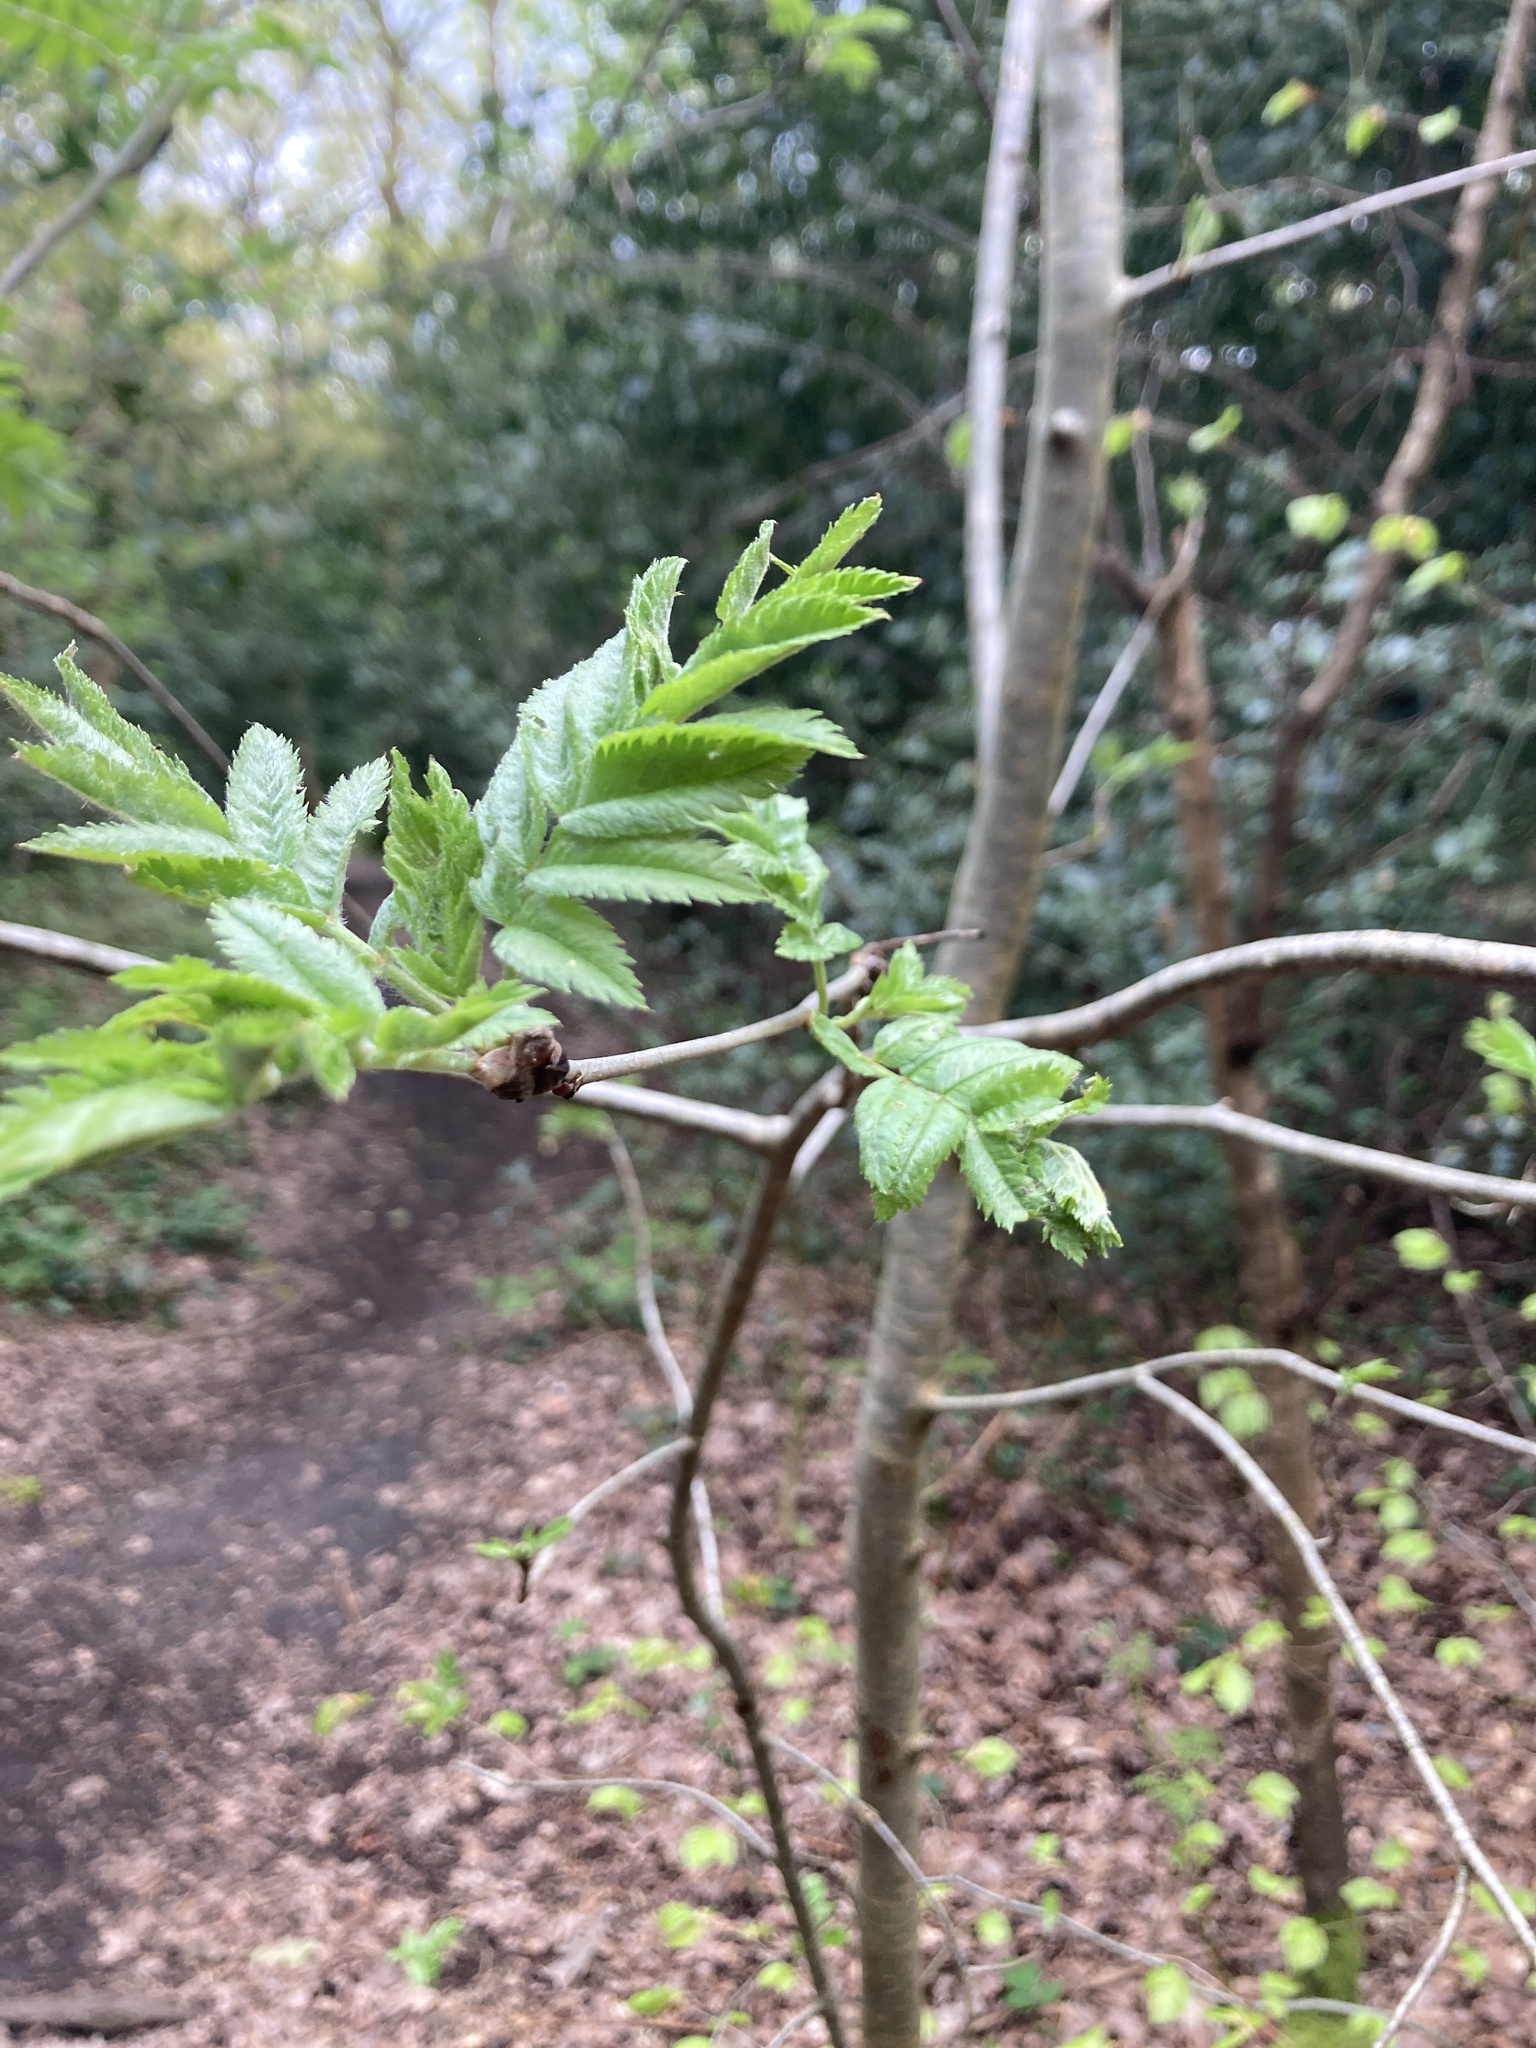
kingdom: Plantae
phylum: Tracheophyta
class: Magnoliopsida
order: Rosales
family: Rosaceae
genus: Sorbus
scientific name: Sorbus aucuparia
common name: Rowan
